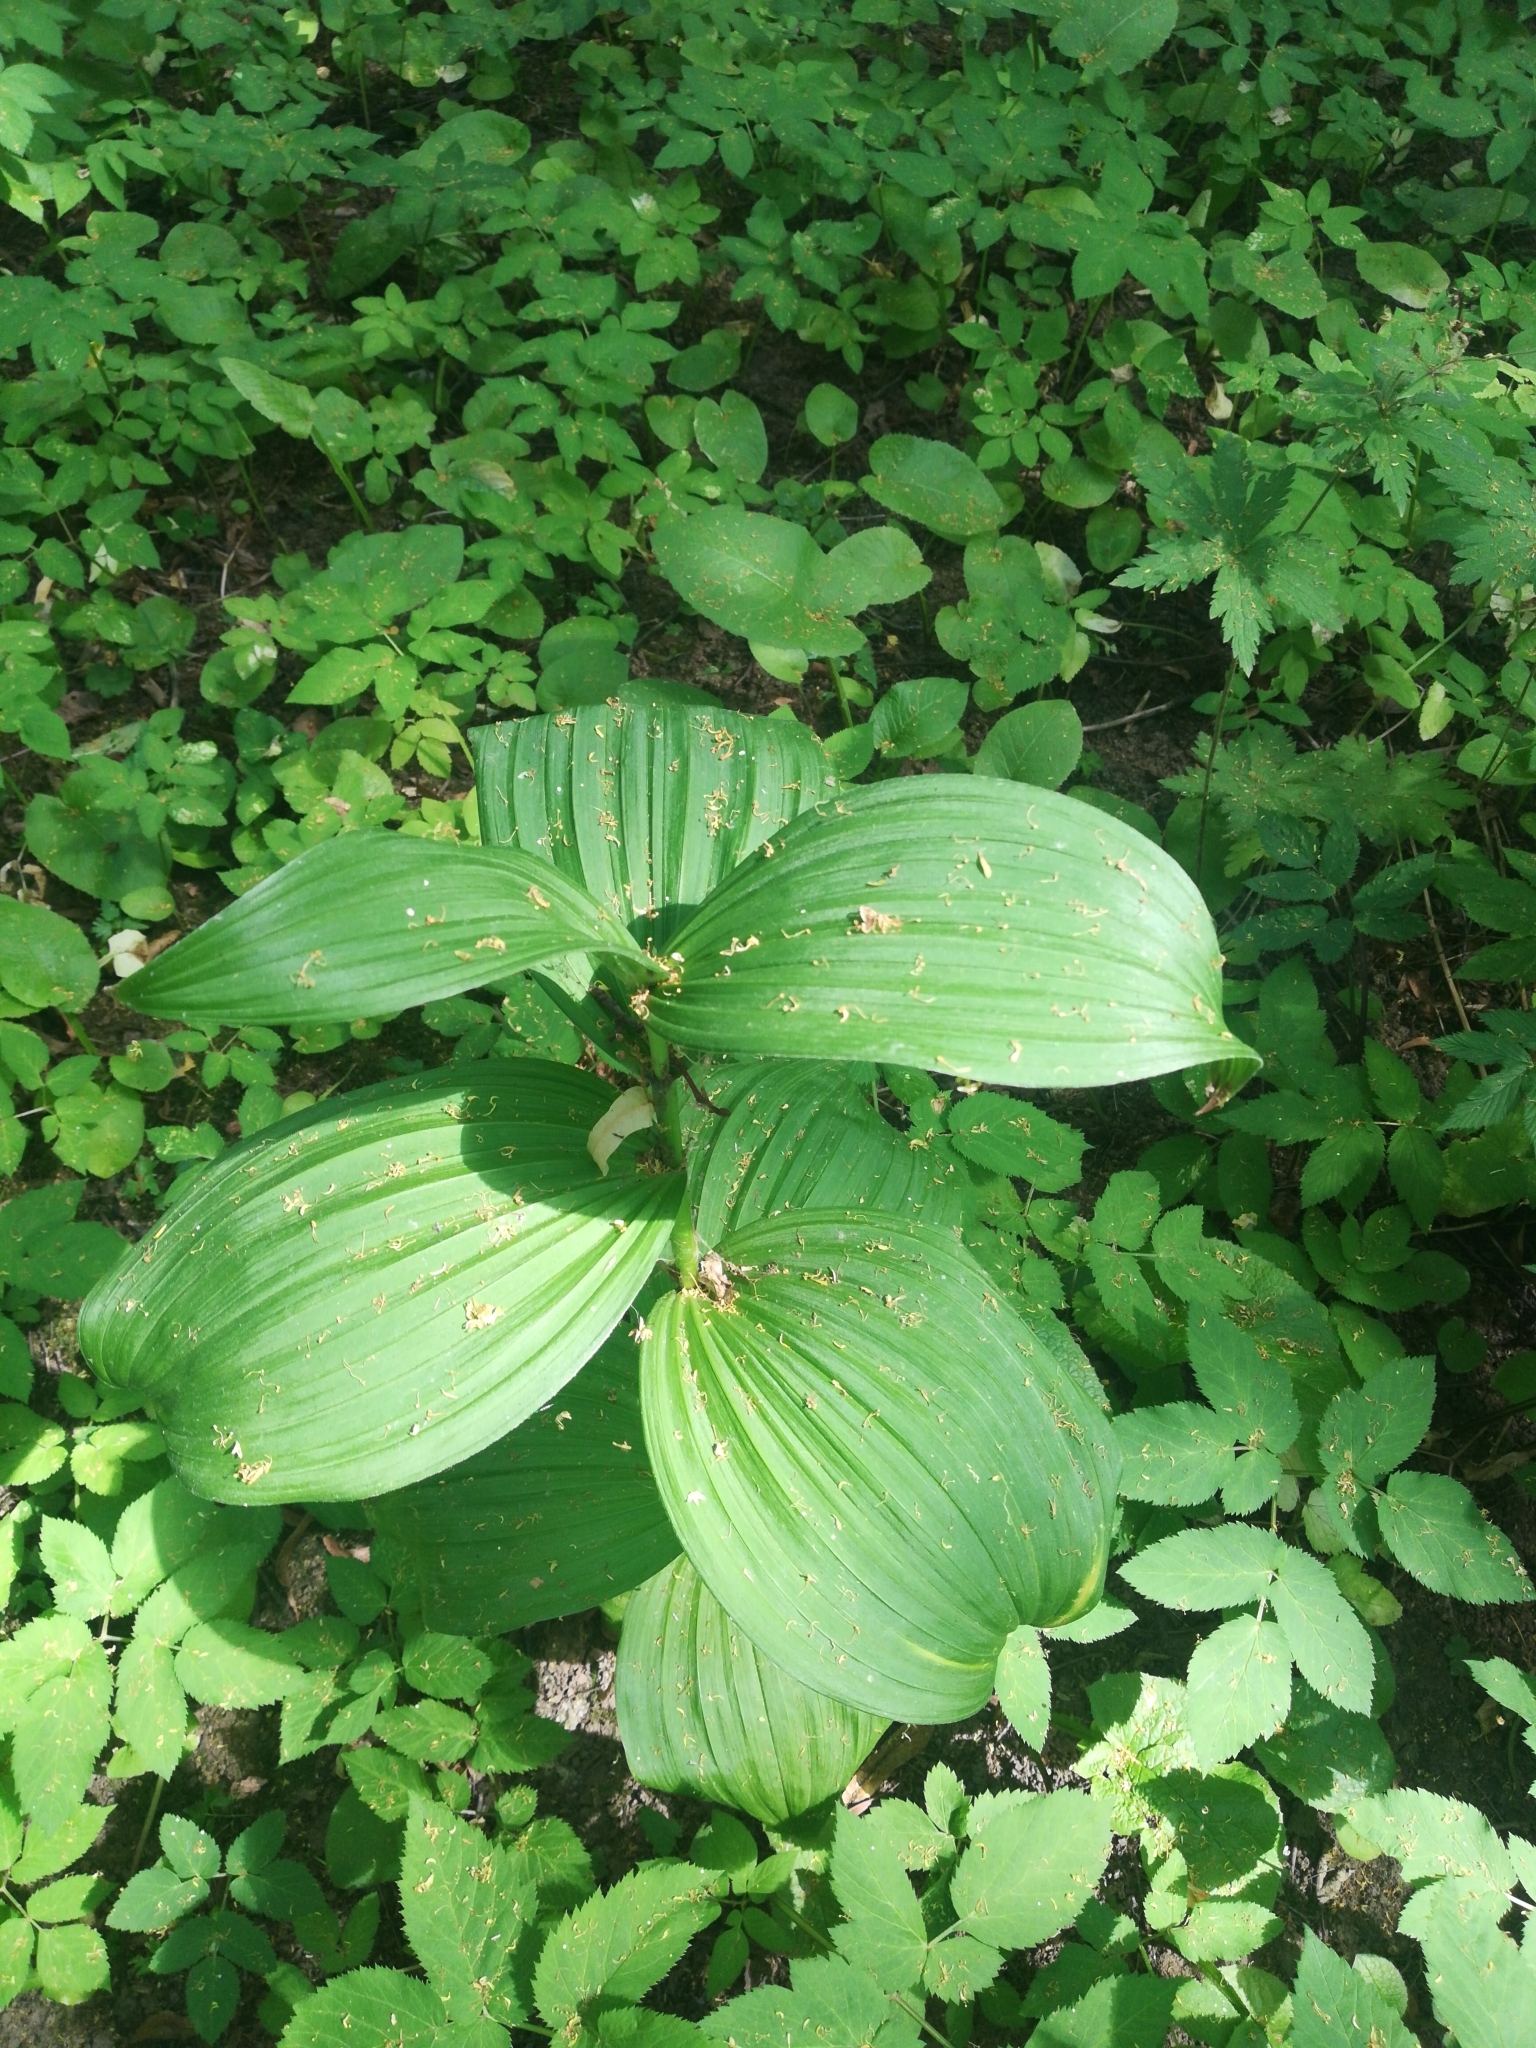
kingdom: Plantae
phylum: Tracheophyta
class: Liliopsida
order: Liliales
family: Melanthiaceae
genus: Veratrum
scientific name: Veratrum lobelianum
